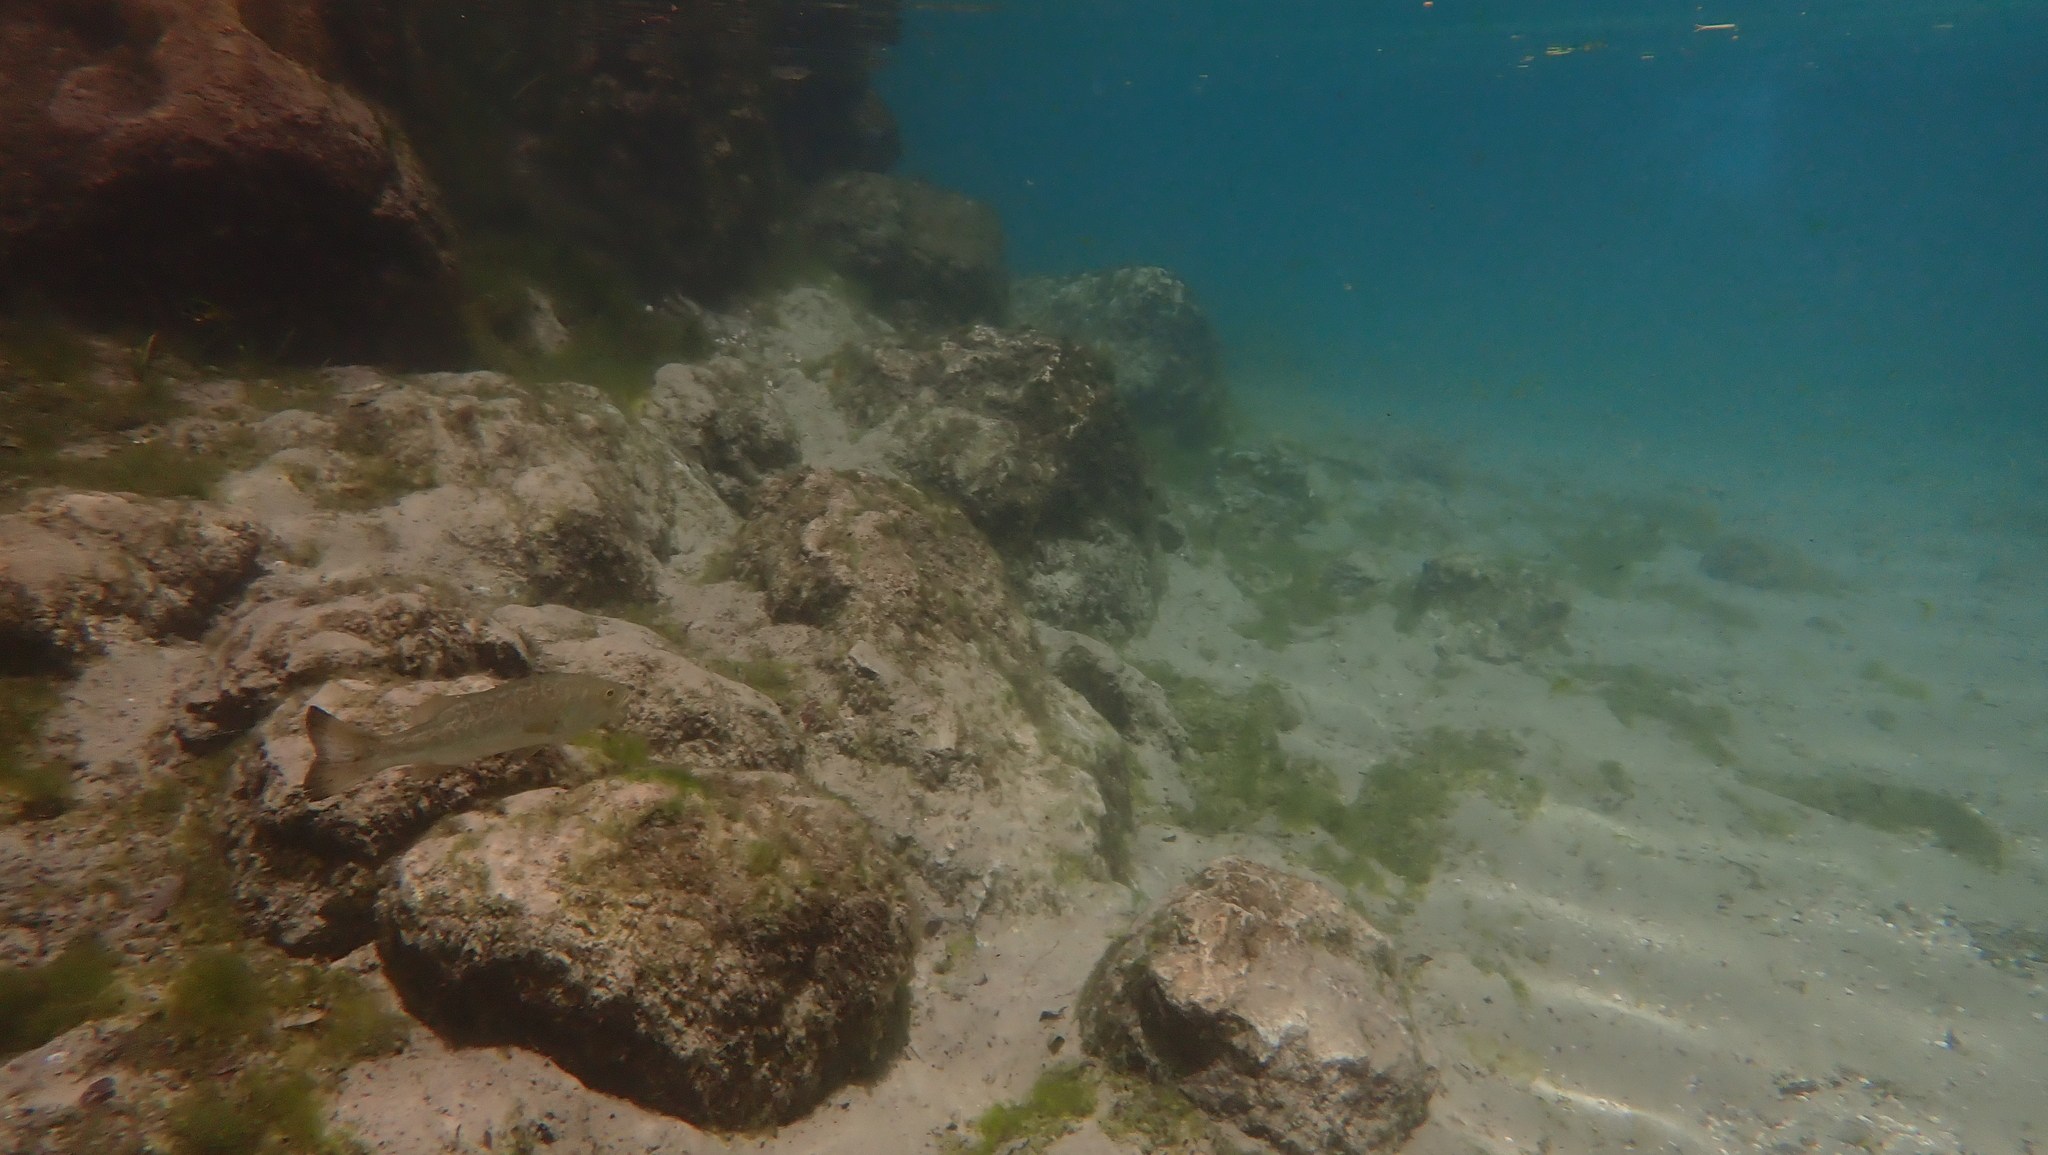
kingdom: Animalia
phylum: Chordata
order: Perciformes
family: Centrarchidae
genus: Micropterus
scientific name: Micropterus salmoides
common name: Largemouth bass
